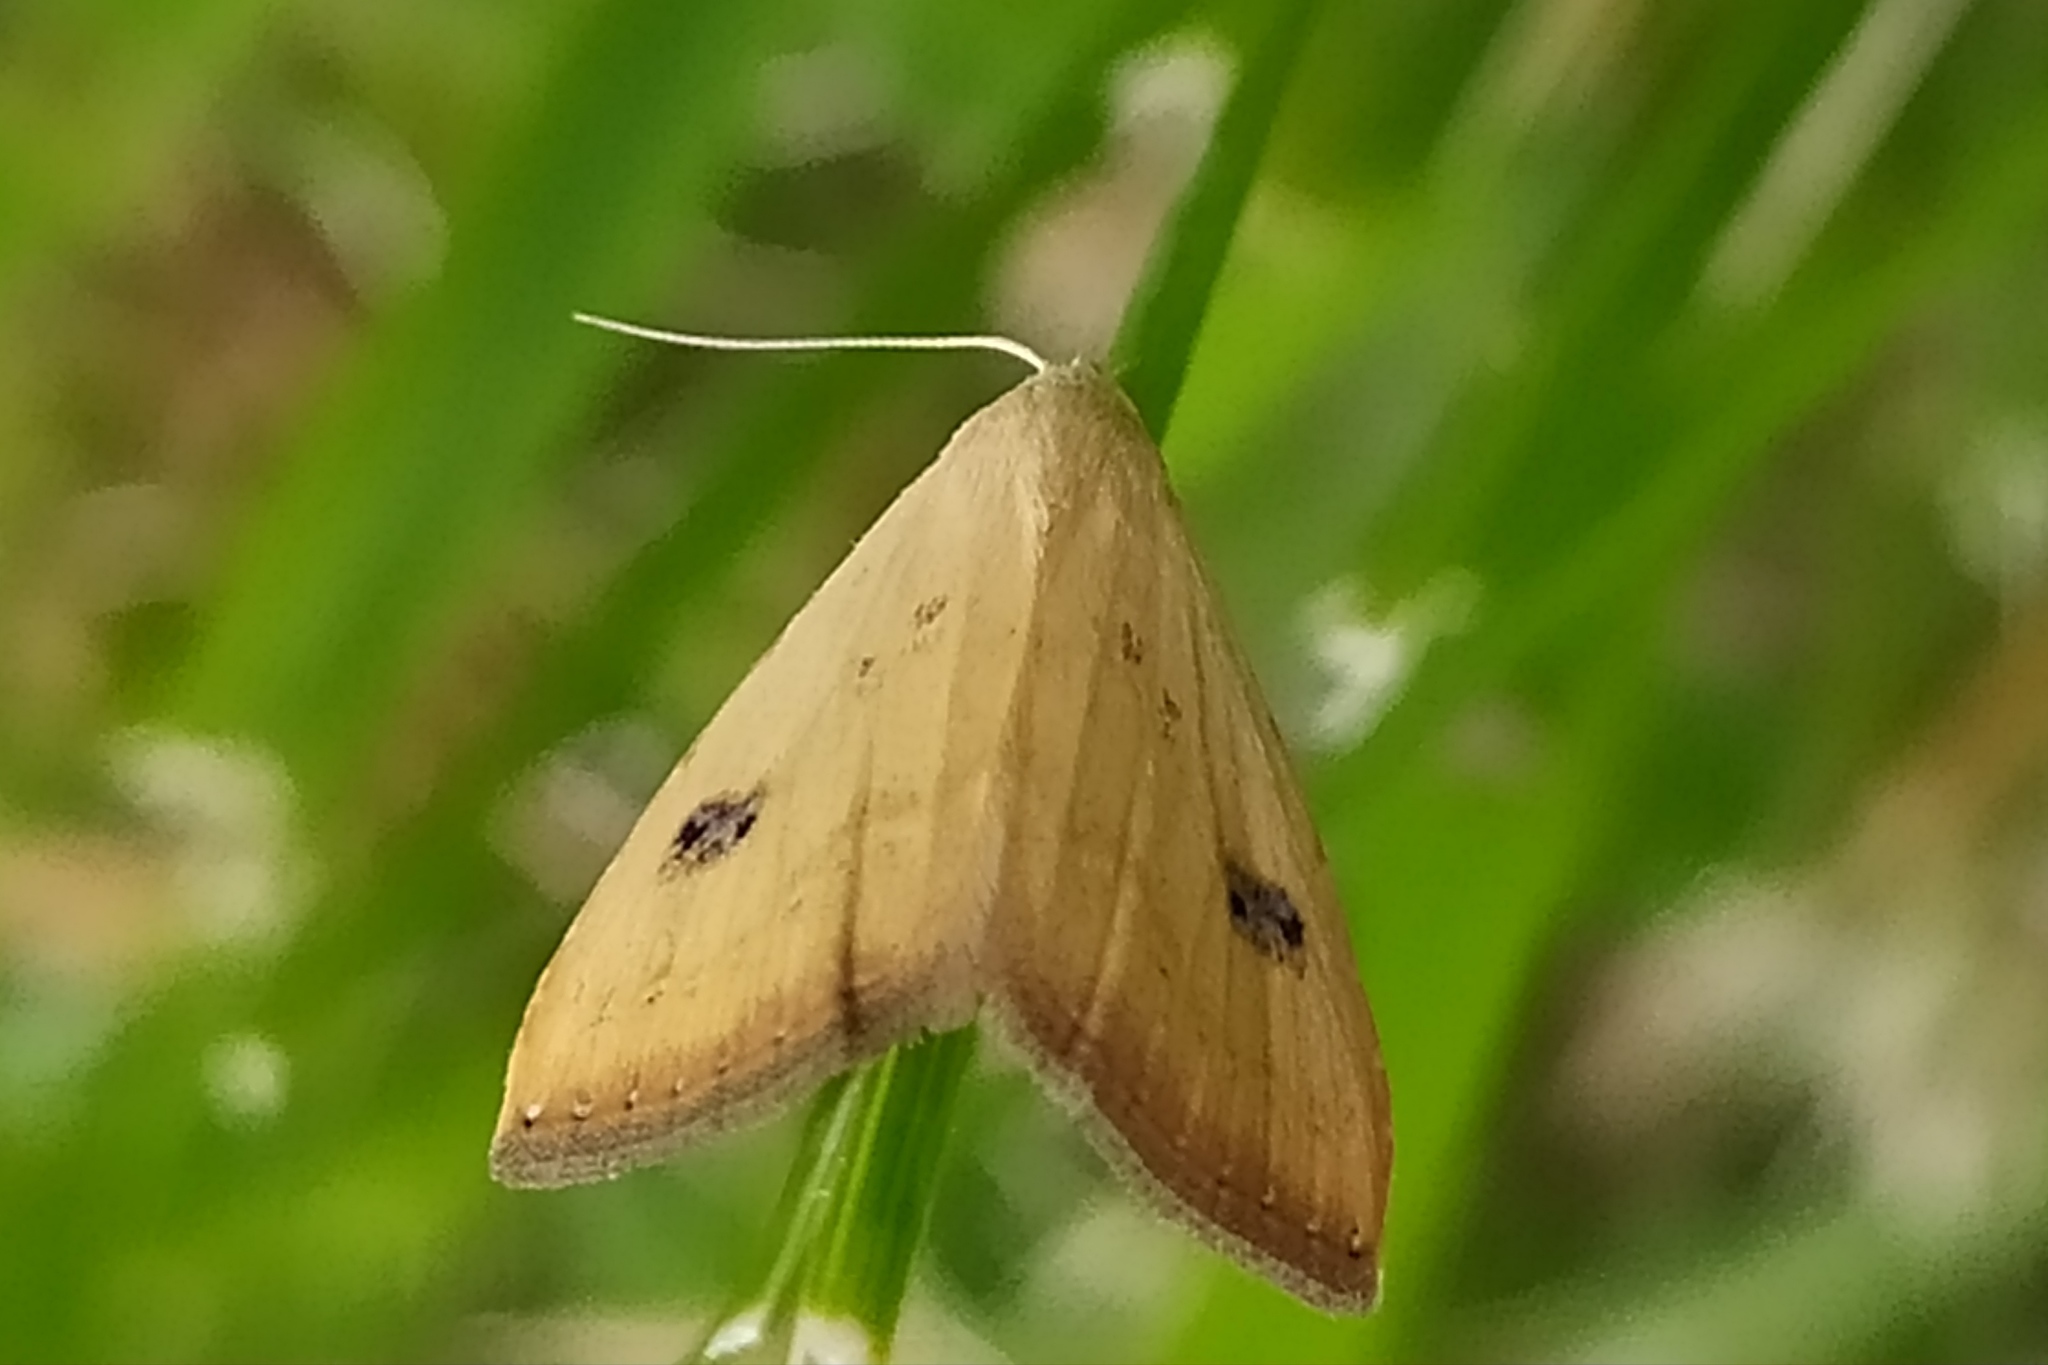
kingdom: Animalia
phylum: Arthropoda
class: Insecta
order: Lepidoptera
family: Erebidae
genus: Rivula
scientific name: Rivula sericealis
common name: Straw dot
